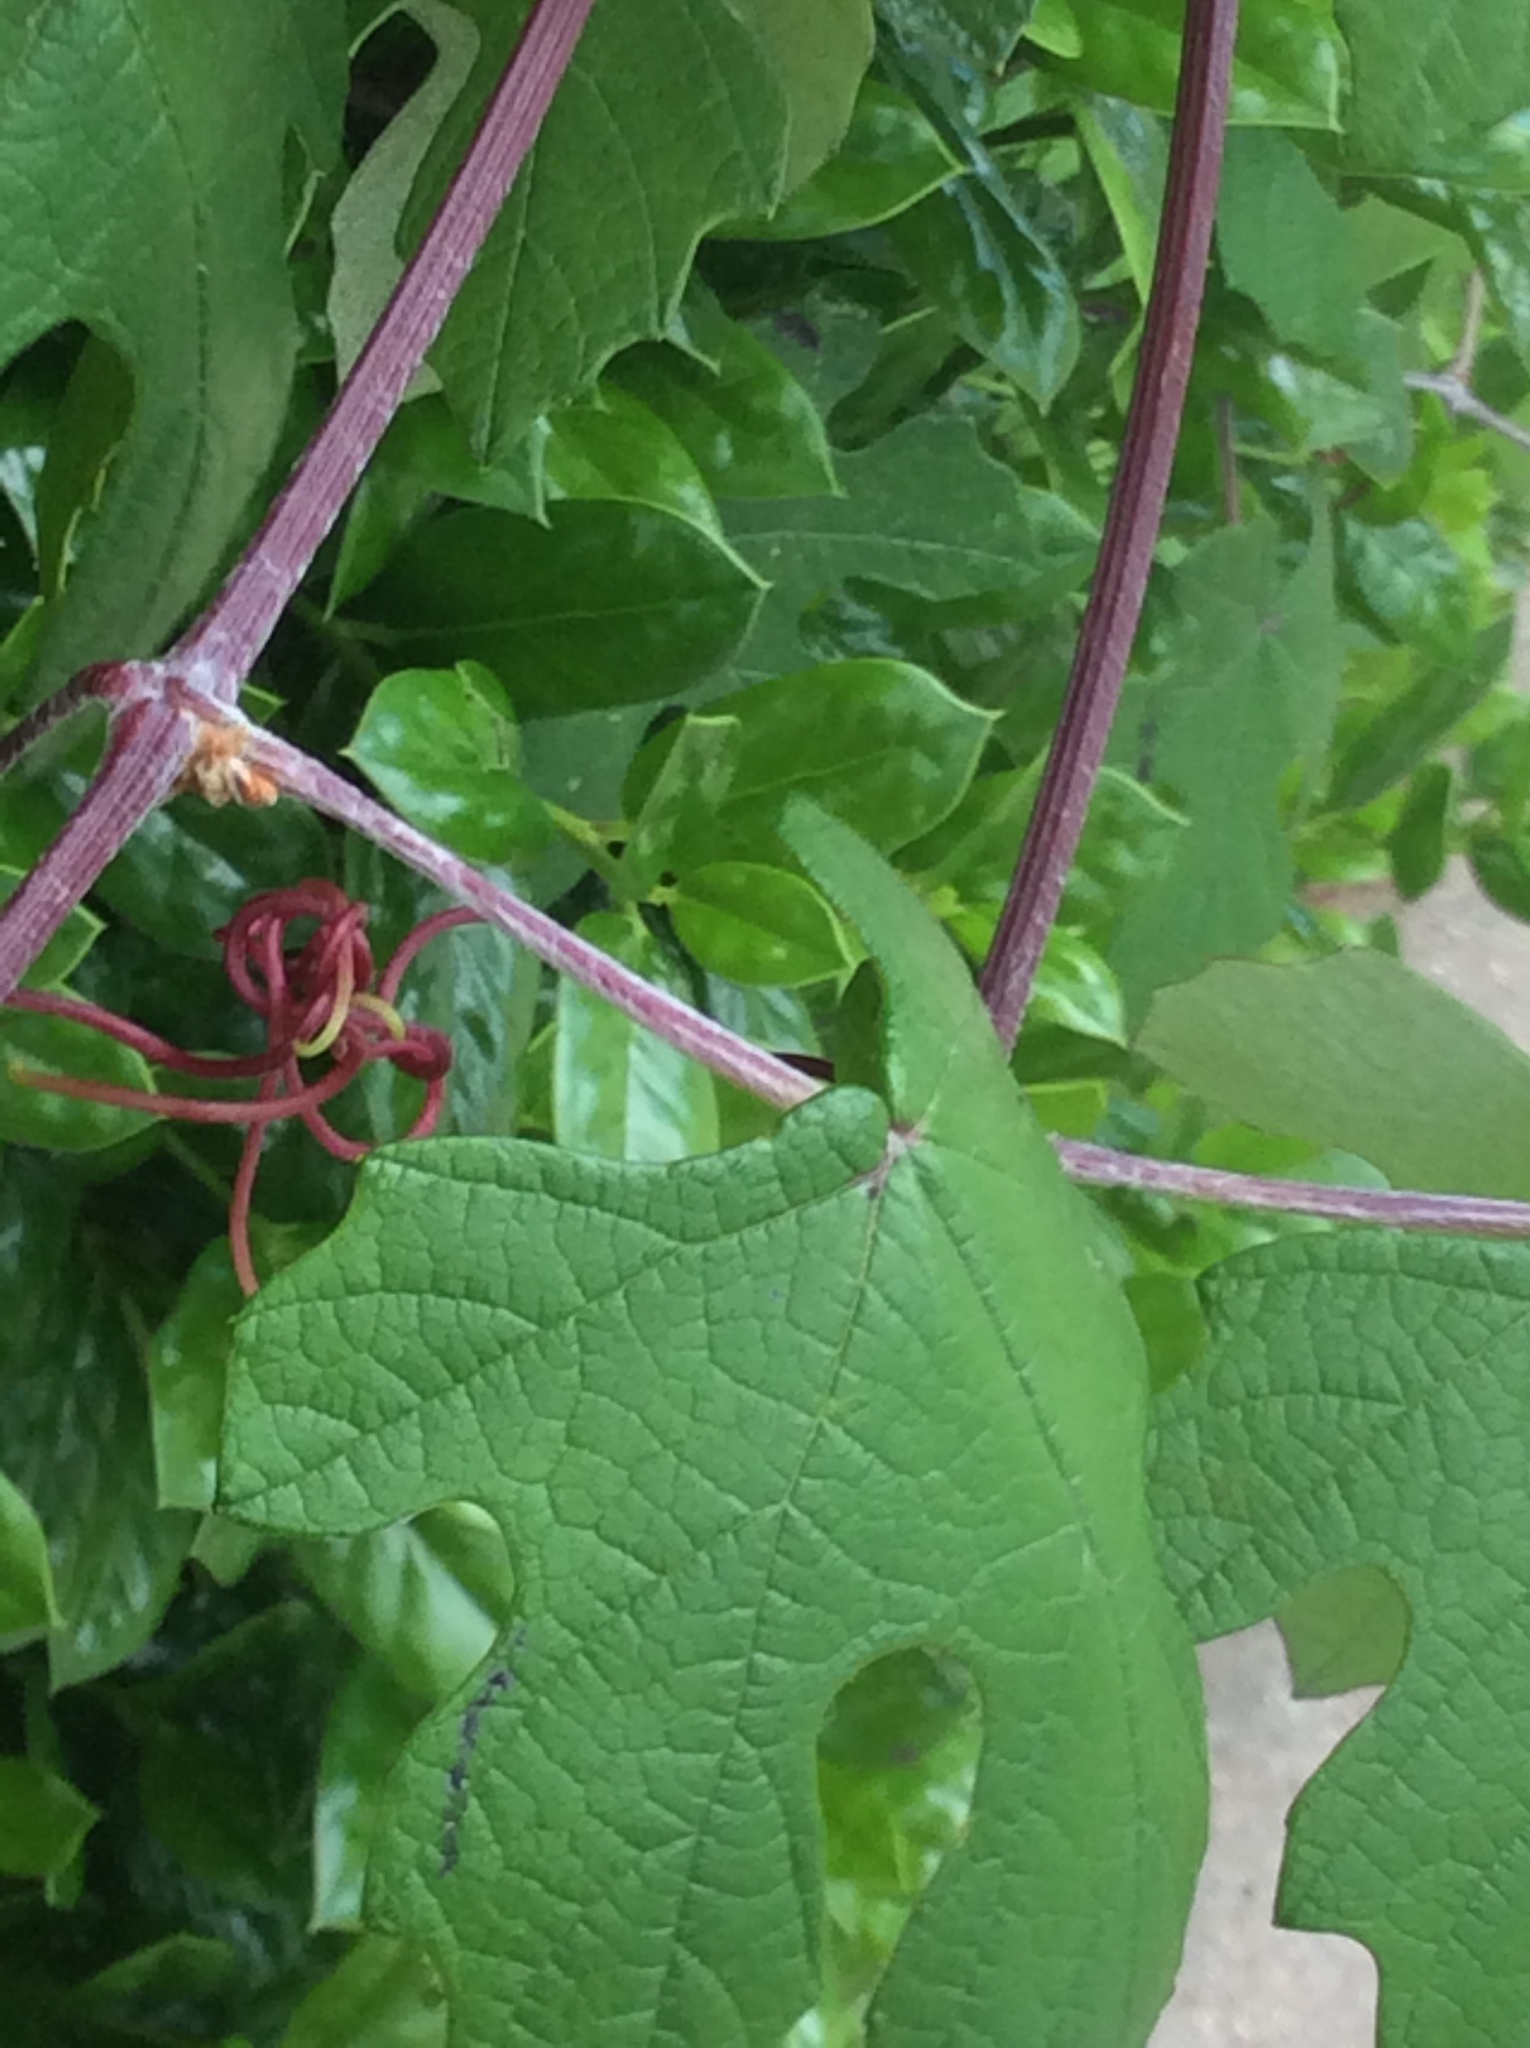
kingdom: Plantae
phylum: Tracheophyta
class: Magnoliopsida
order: Vitales
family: Vitaceae
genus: Vitis
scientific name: Vitis mustangensis
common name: Mustang grape
